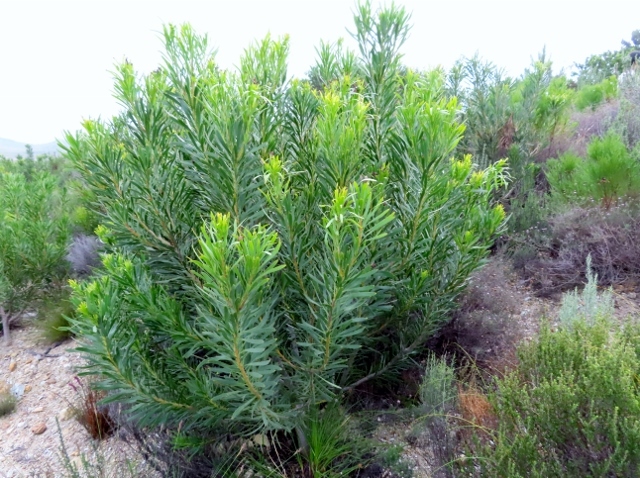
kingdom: Plantae
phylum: Tracheophyta
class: Magnoliopsida
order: Proteales
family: Proteaceae
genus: Protea
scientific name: Protea repens
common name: Sugarbush
